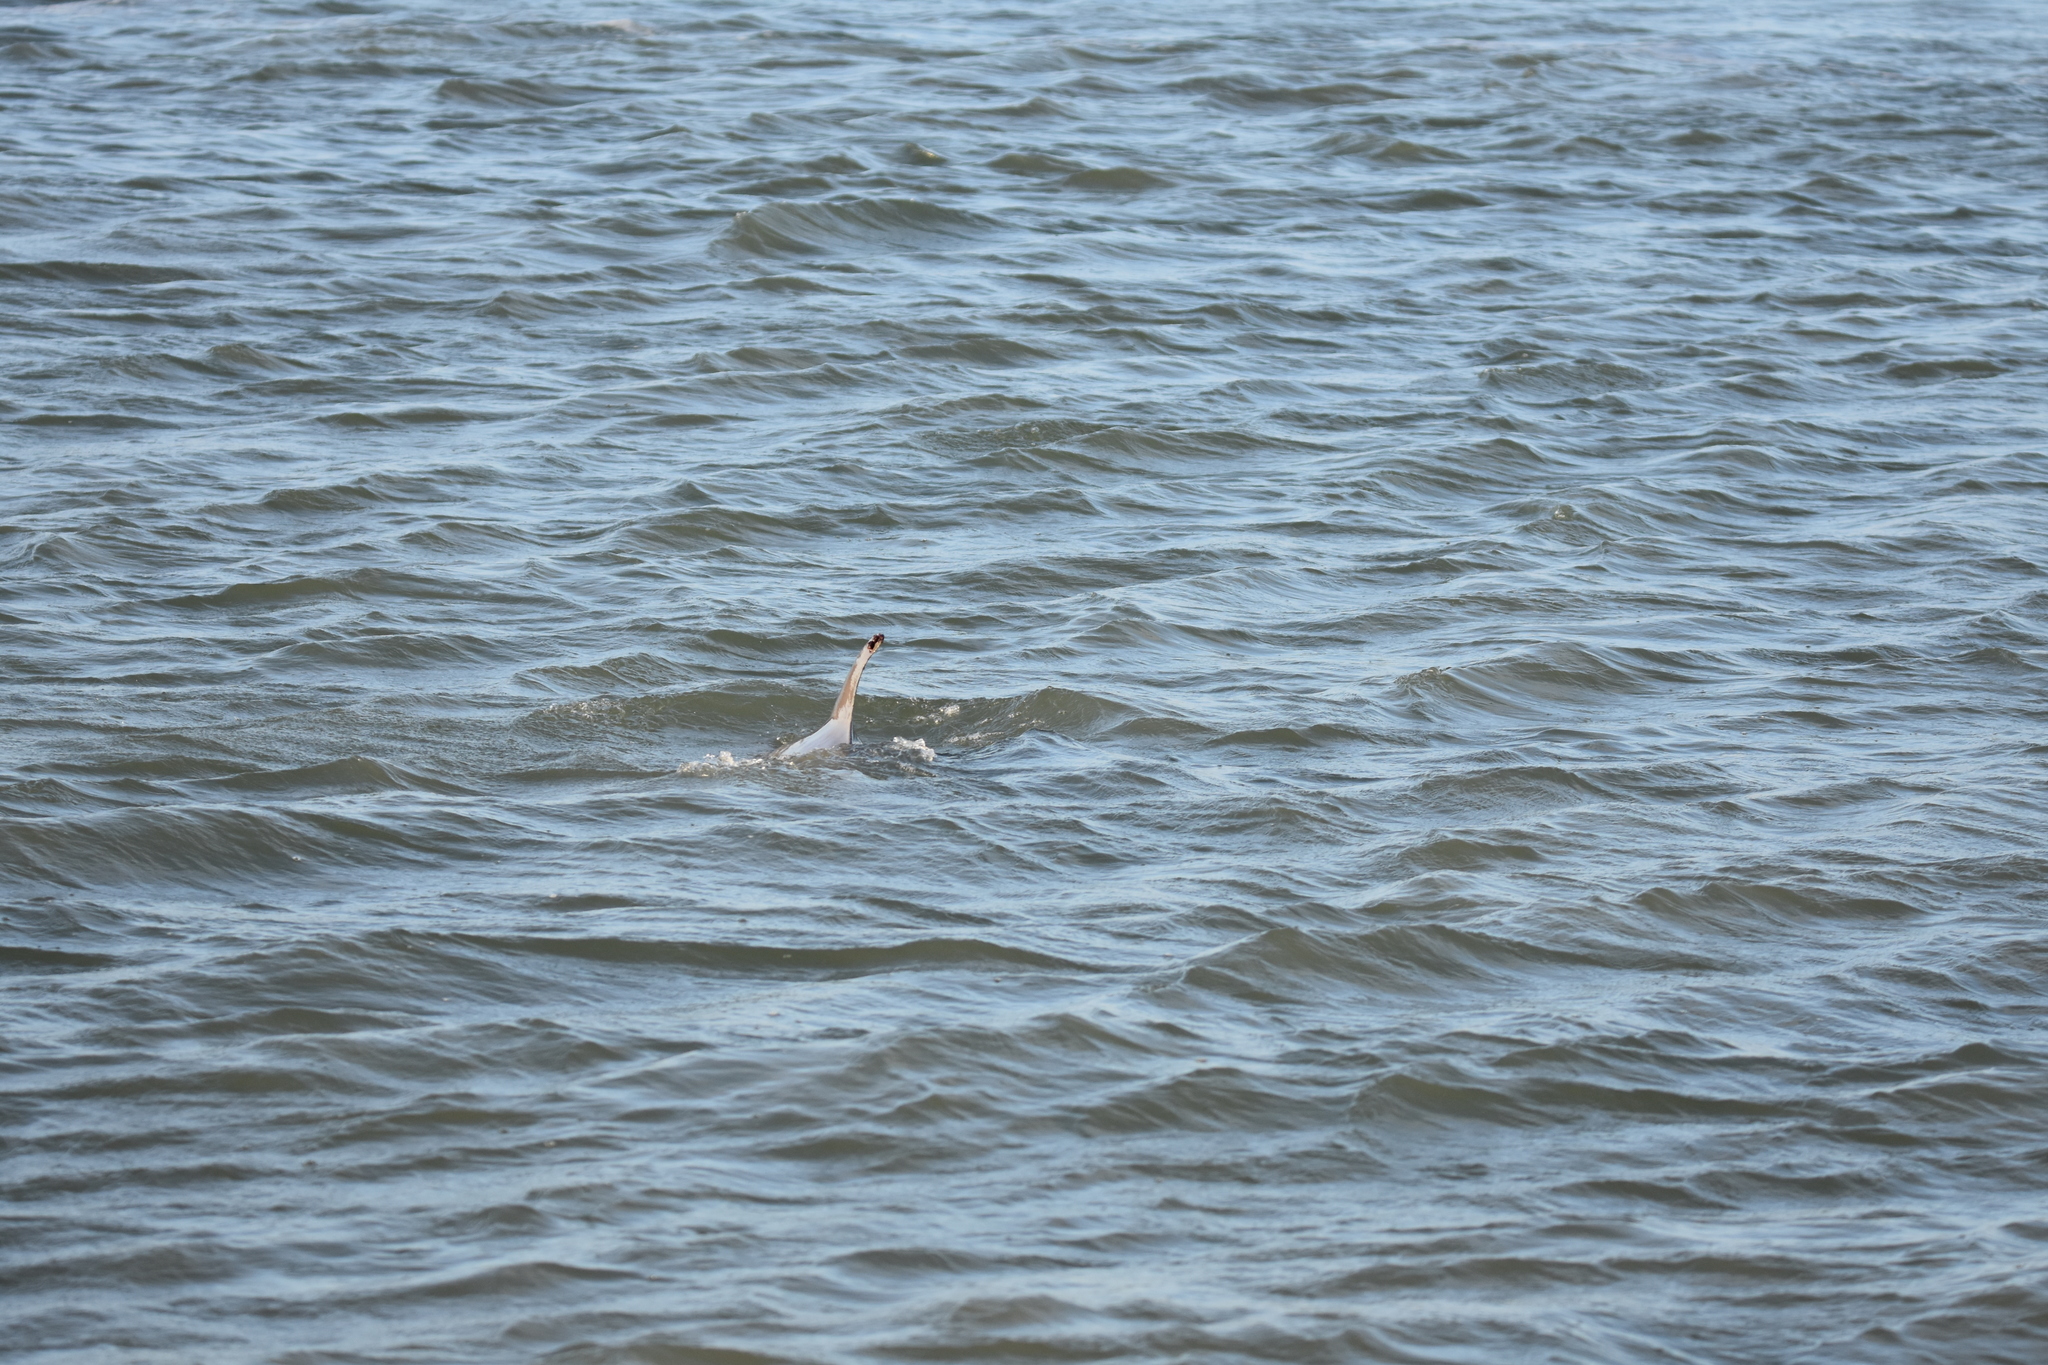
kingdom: Animalia
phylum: Chordata
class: Mammalia
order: Cetacea
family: Delphinidae
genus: Tursiops
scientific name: Tursiops truncatus
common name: Bottlenose dolphin
